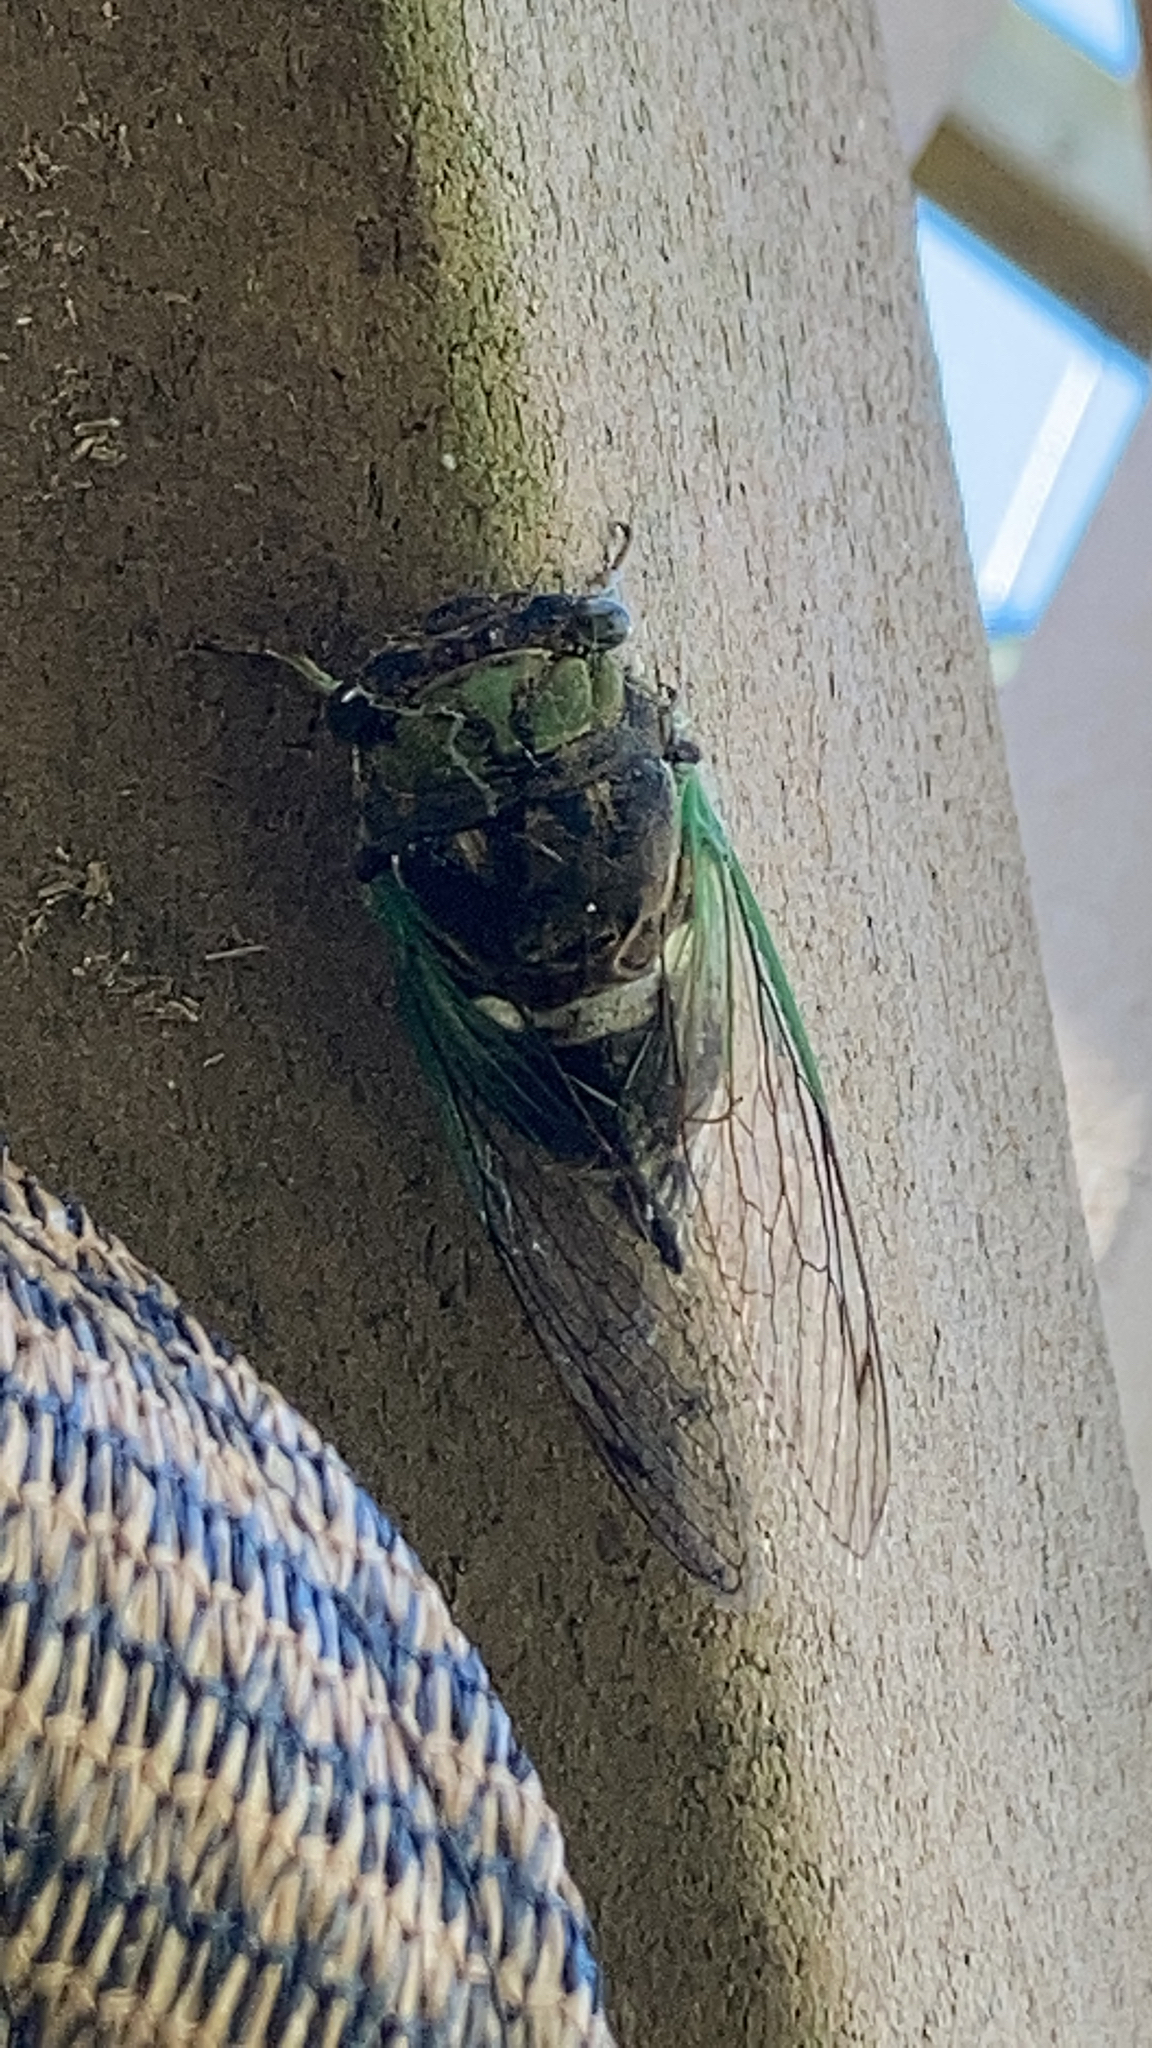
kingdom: Animalia
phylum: Arthropoda
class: Insecta
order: Hemiptera
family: Cicadidae
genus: Neotibicen
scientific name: Neotibicen tibicen
